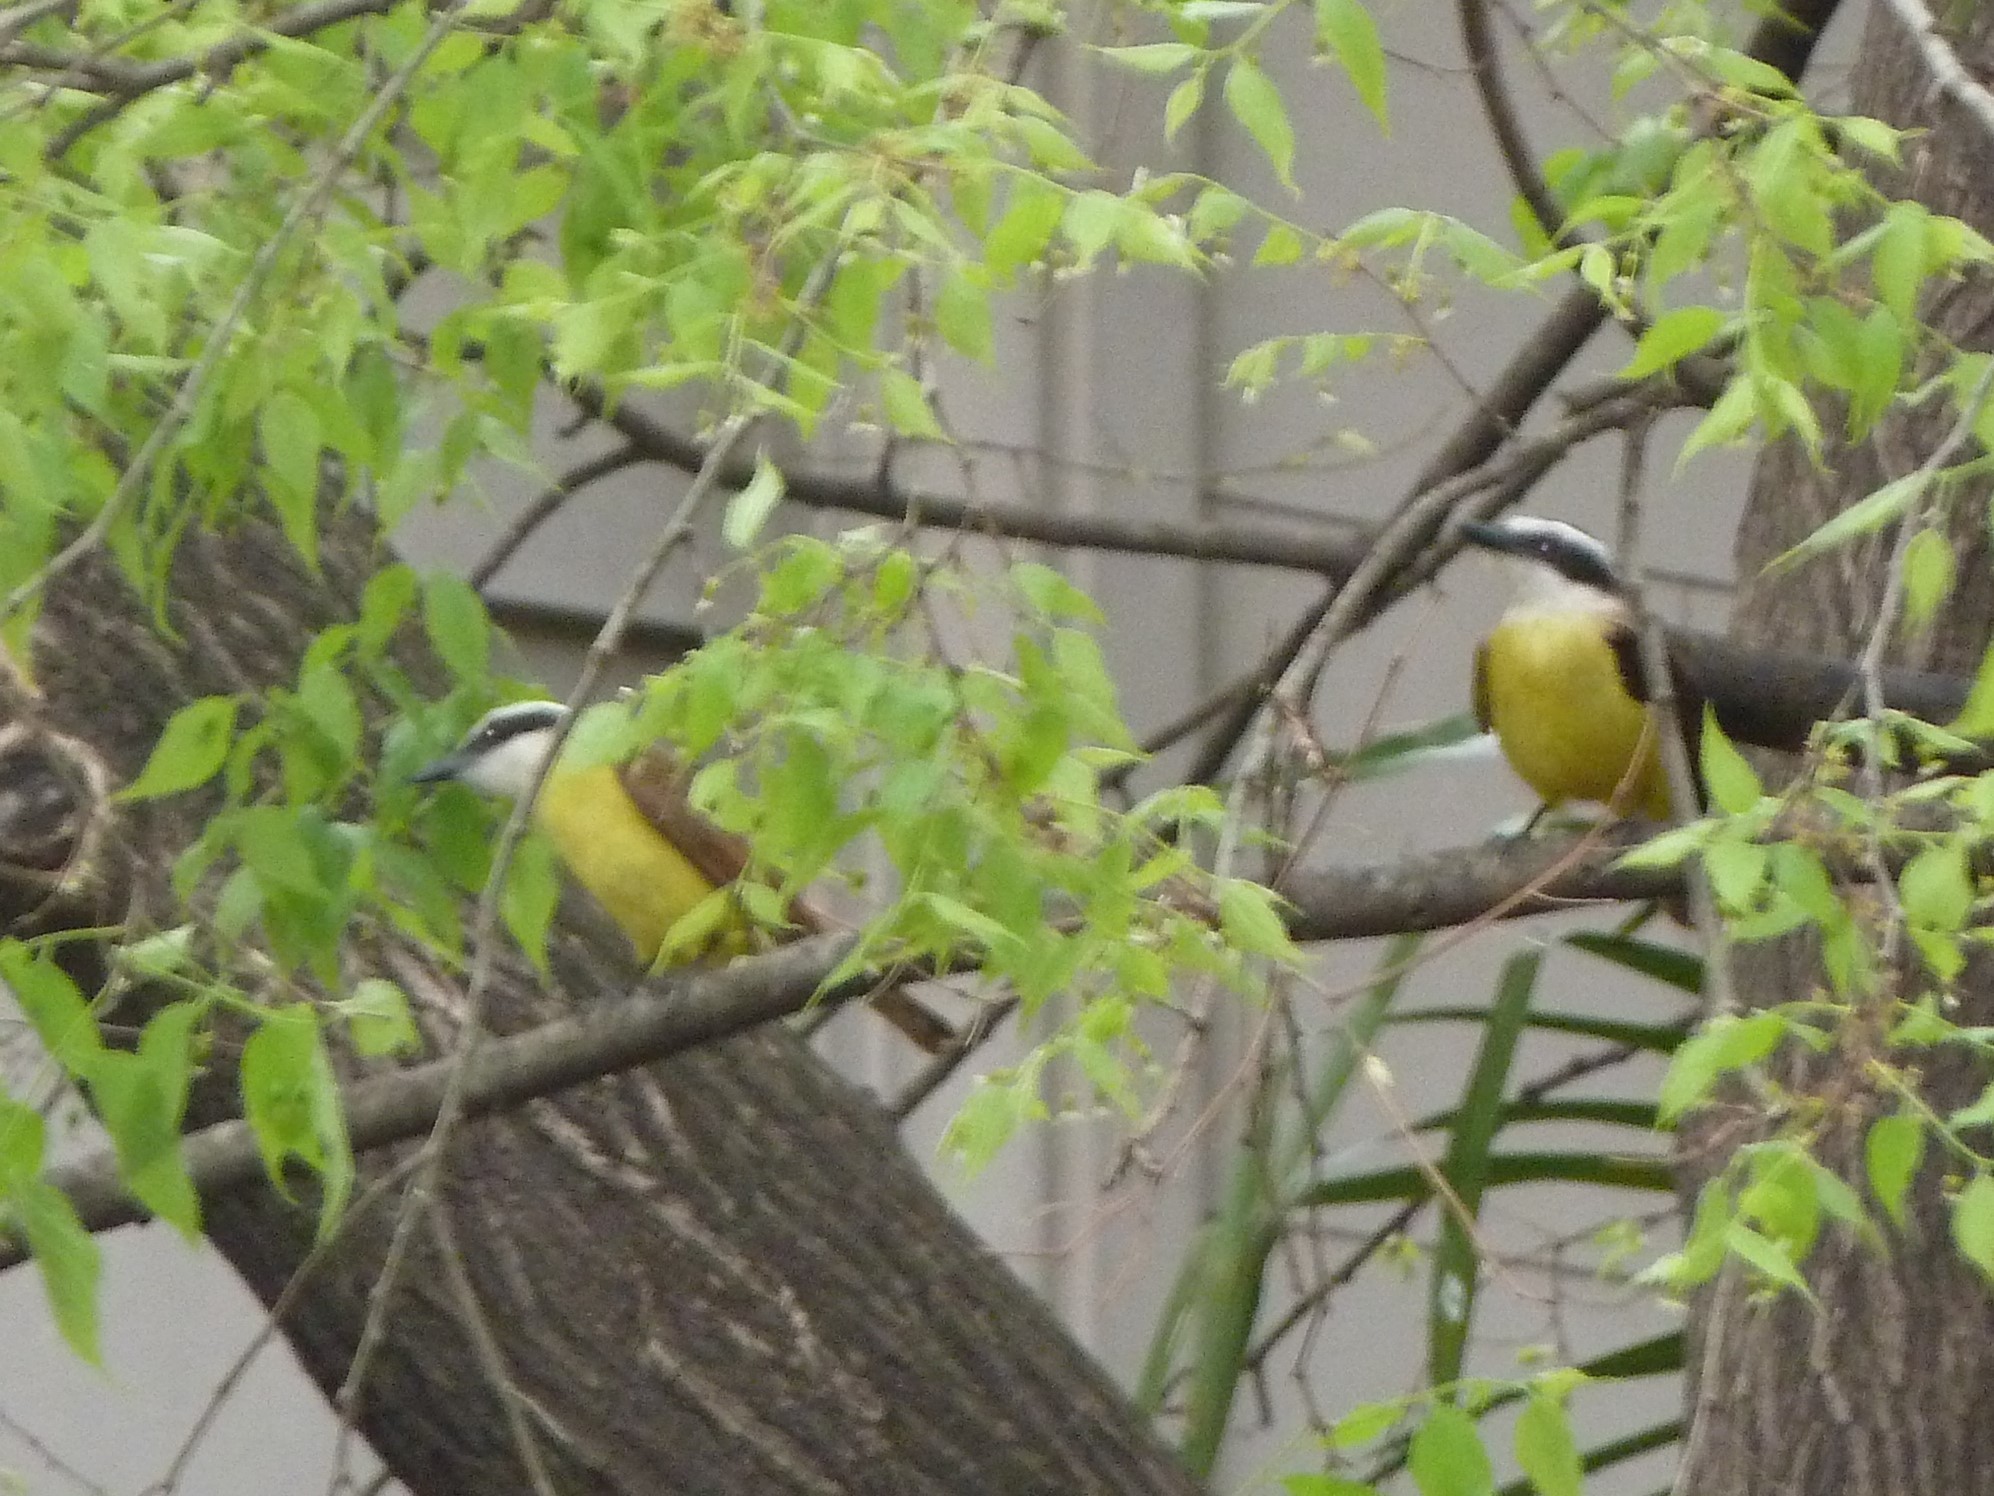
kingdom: Animalia
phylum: Chordata
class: Aves
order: Passeriformes
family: Tyrannidae
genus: Pitangus
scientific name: Pitangus sulphuratus
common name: Great kiskadee
